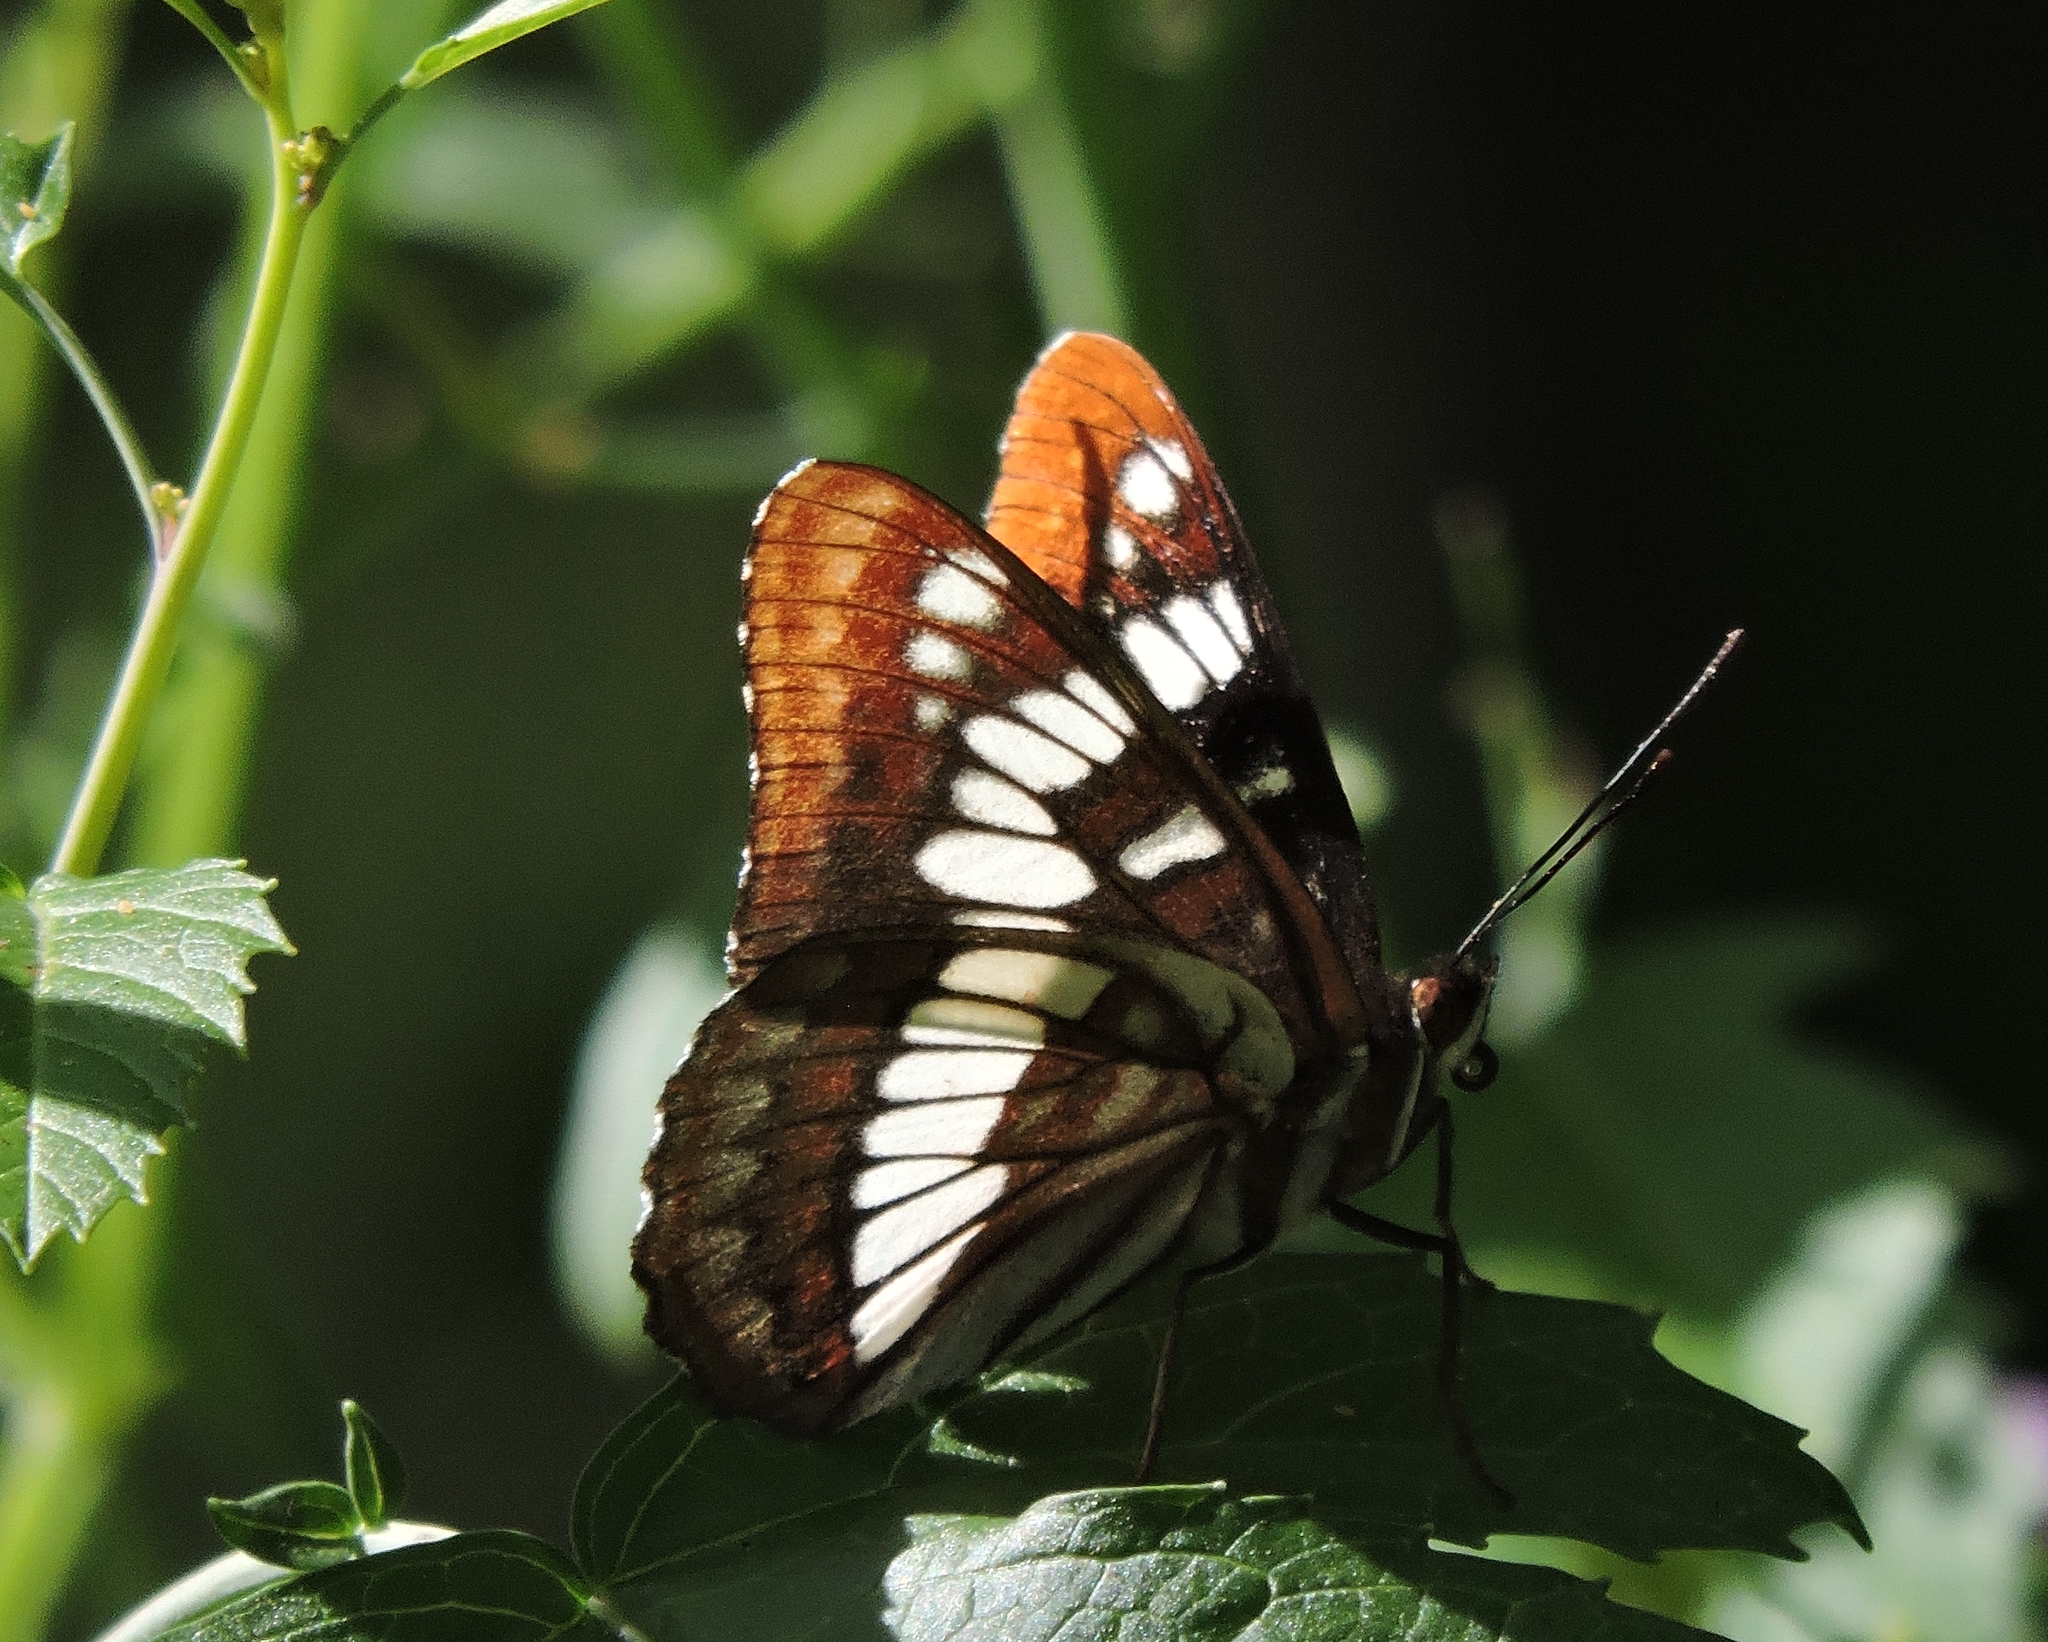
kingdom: Animalia
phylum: Arthropoda
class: Insecta
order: Lepidoptera
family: Nymphalidae
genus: Limenitis
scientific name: Limenitis lorquini
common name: Lorquin's admiral
